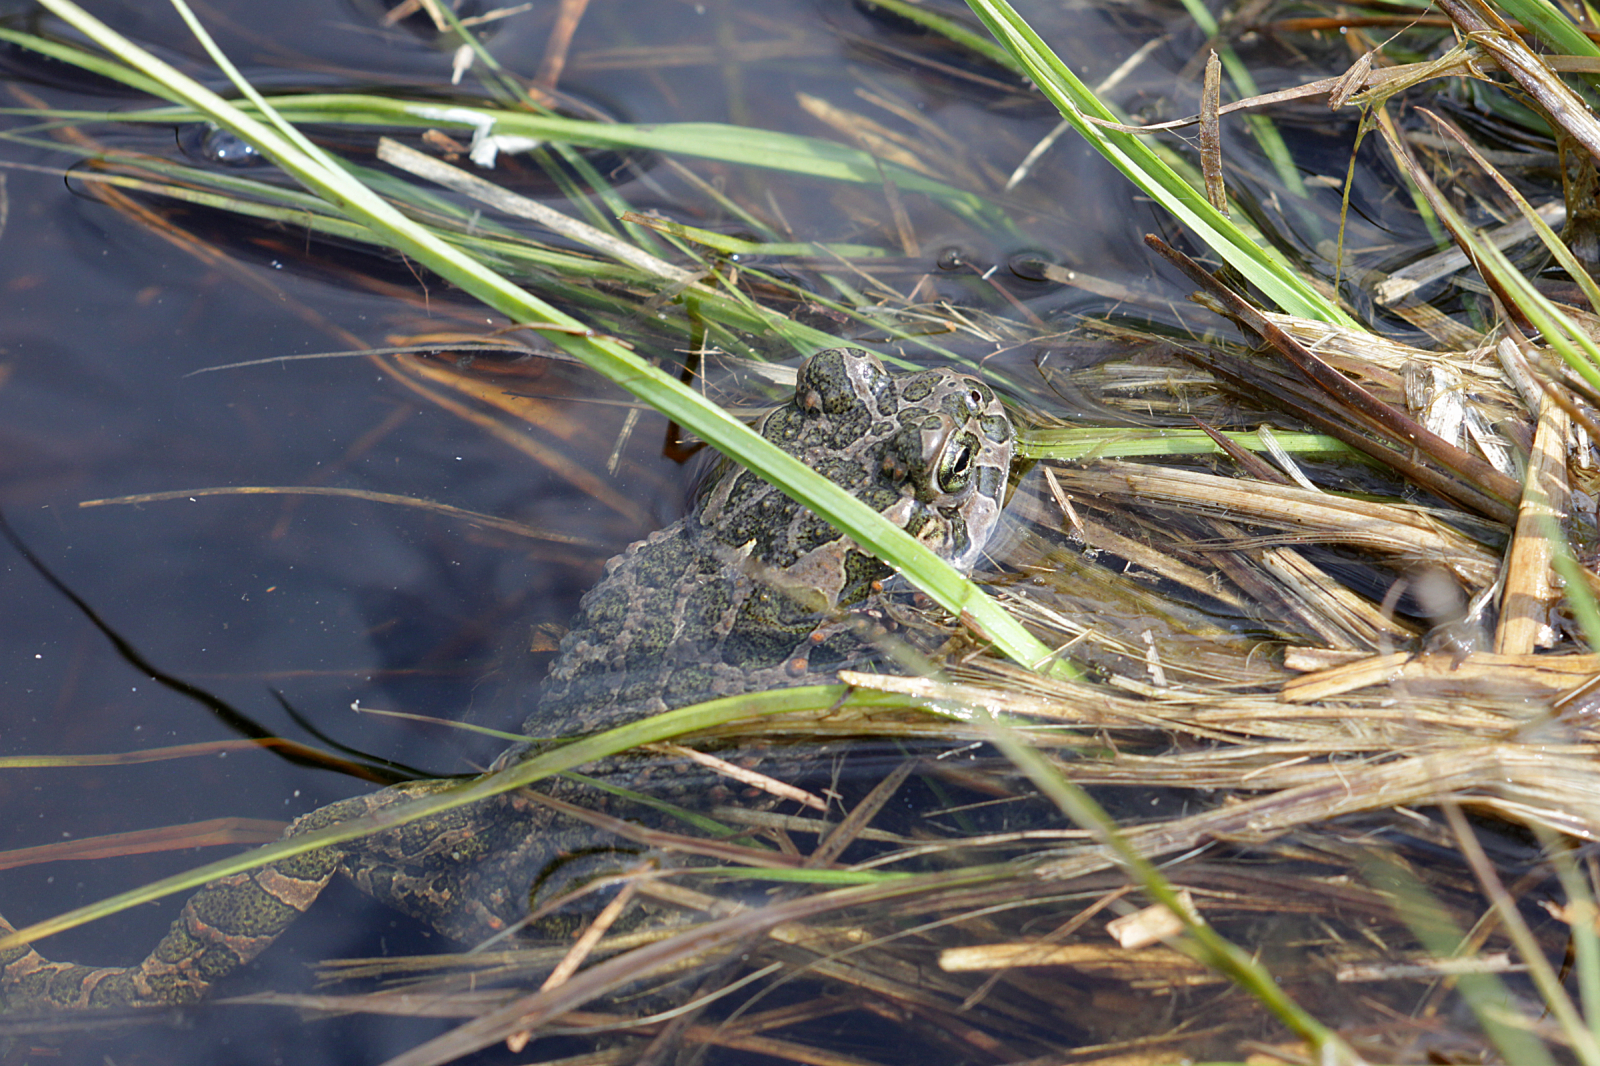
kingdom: Animalia
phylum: Chordata
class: Amphibia
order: Anura
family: Bufonidae
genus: Bufotes
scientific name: Bufotes viridis
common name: European green toad
